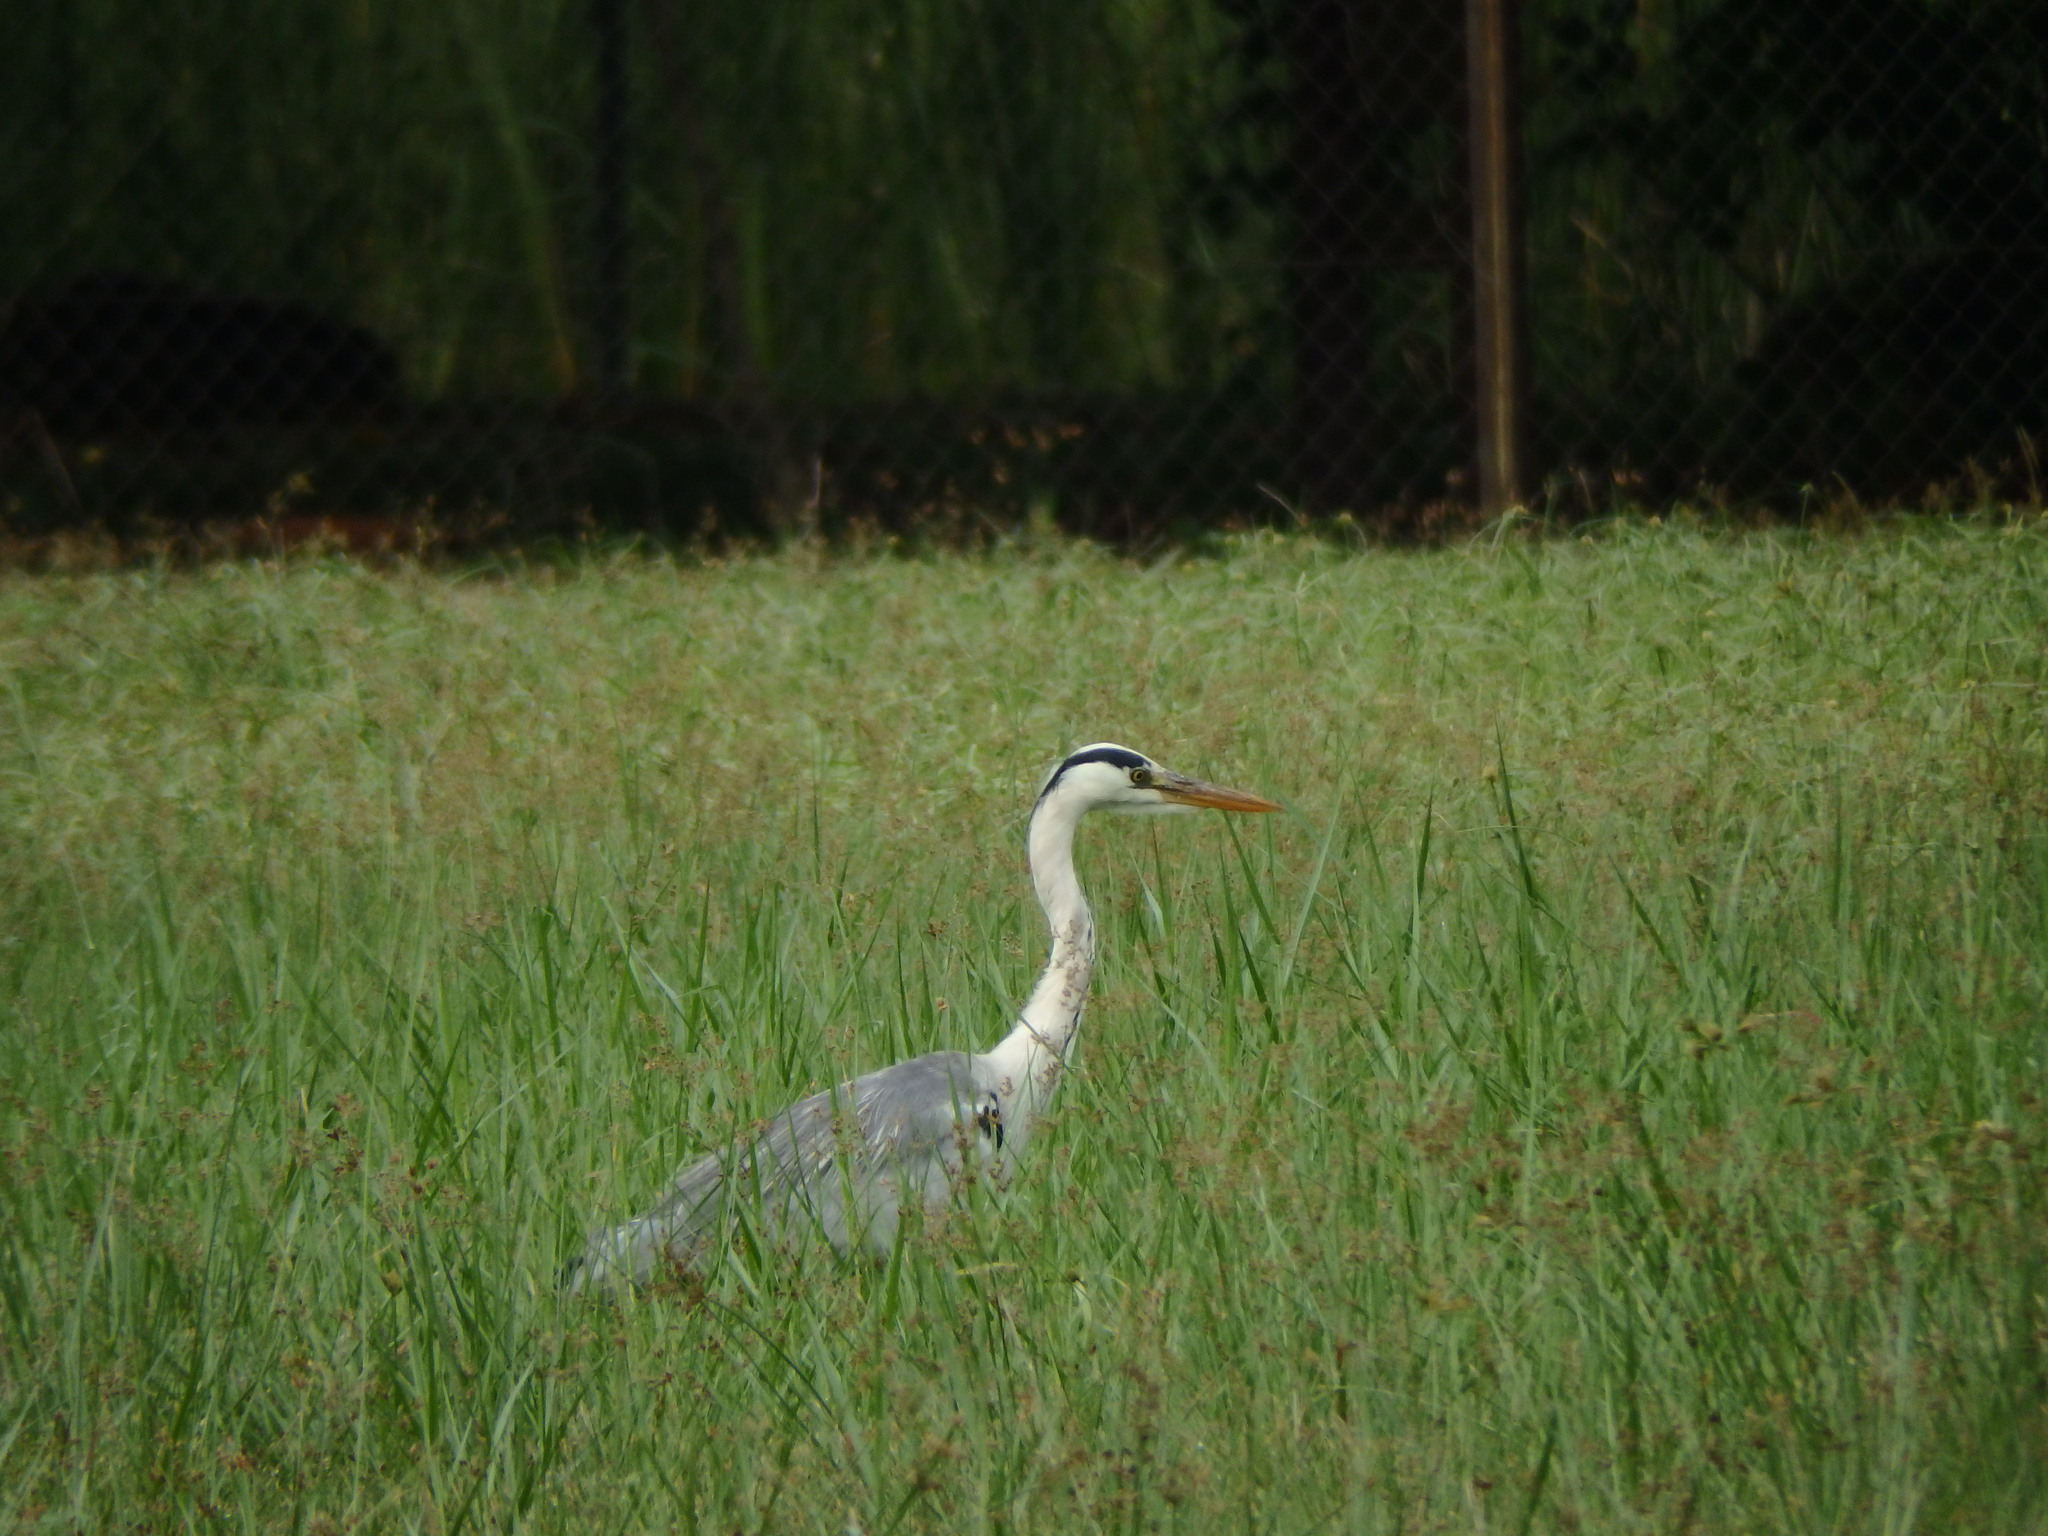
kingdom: Animalia
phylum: Chordata
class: Aves
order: Pelecaniformes
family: Ardeidae
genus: Ardea
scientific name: Ardea cinerea
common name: Grey heron
